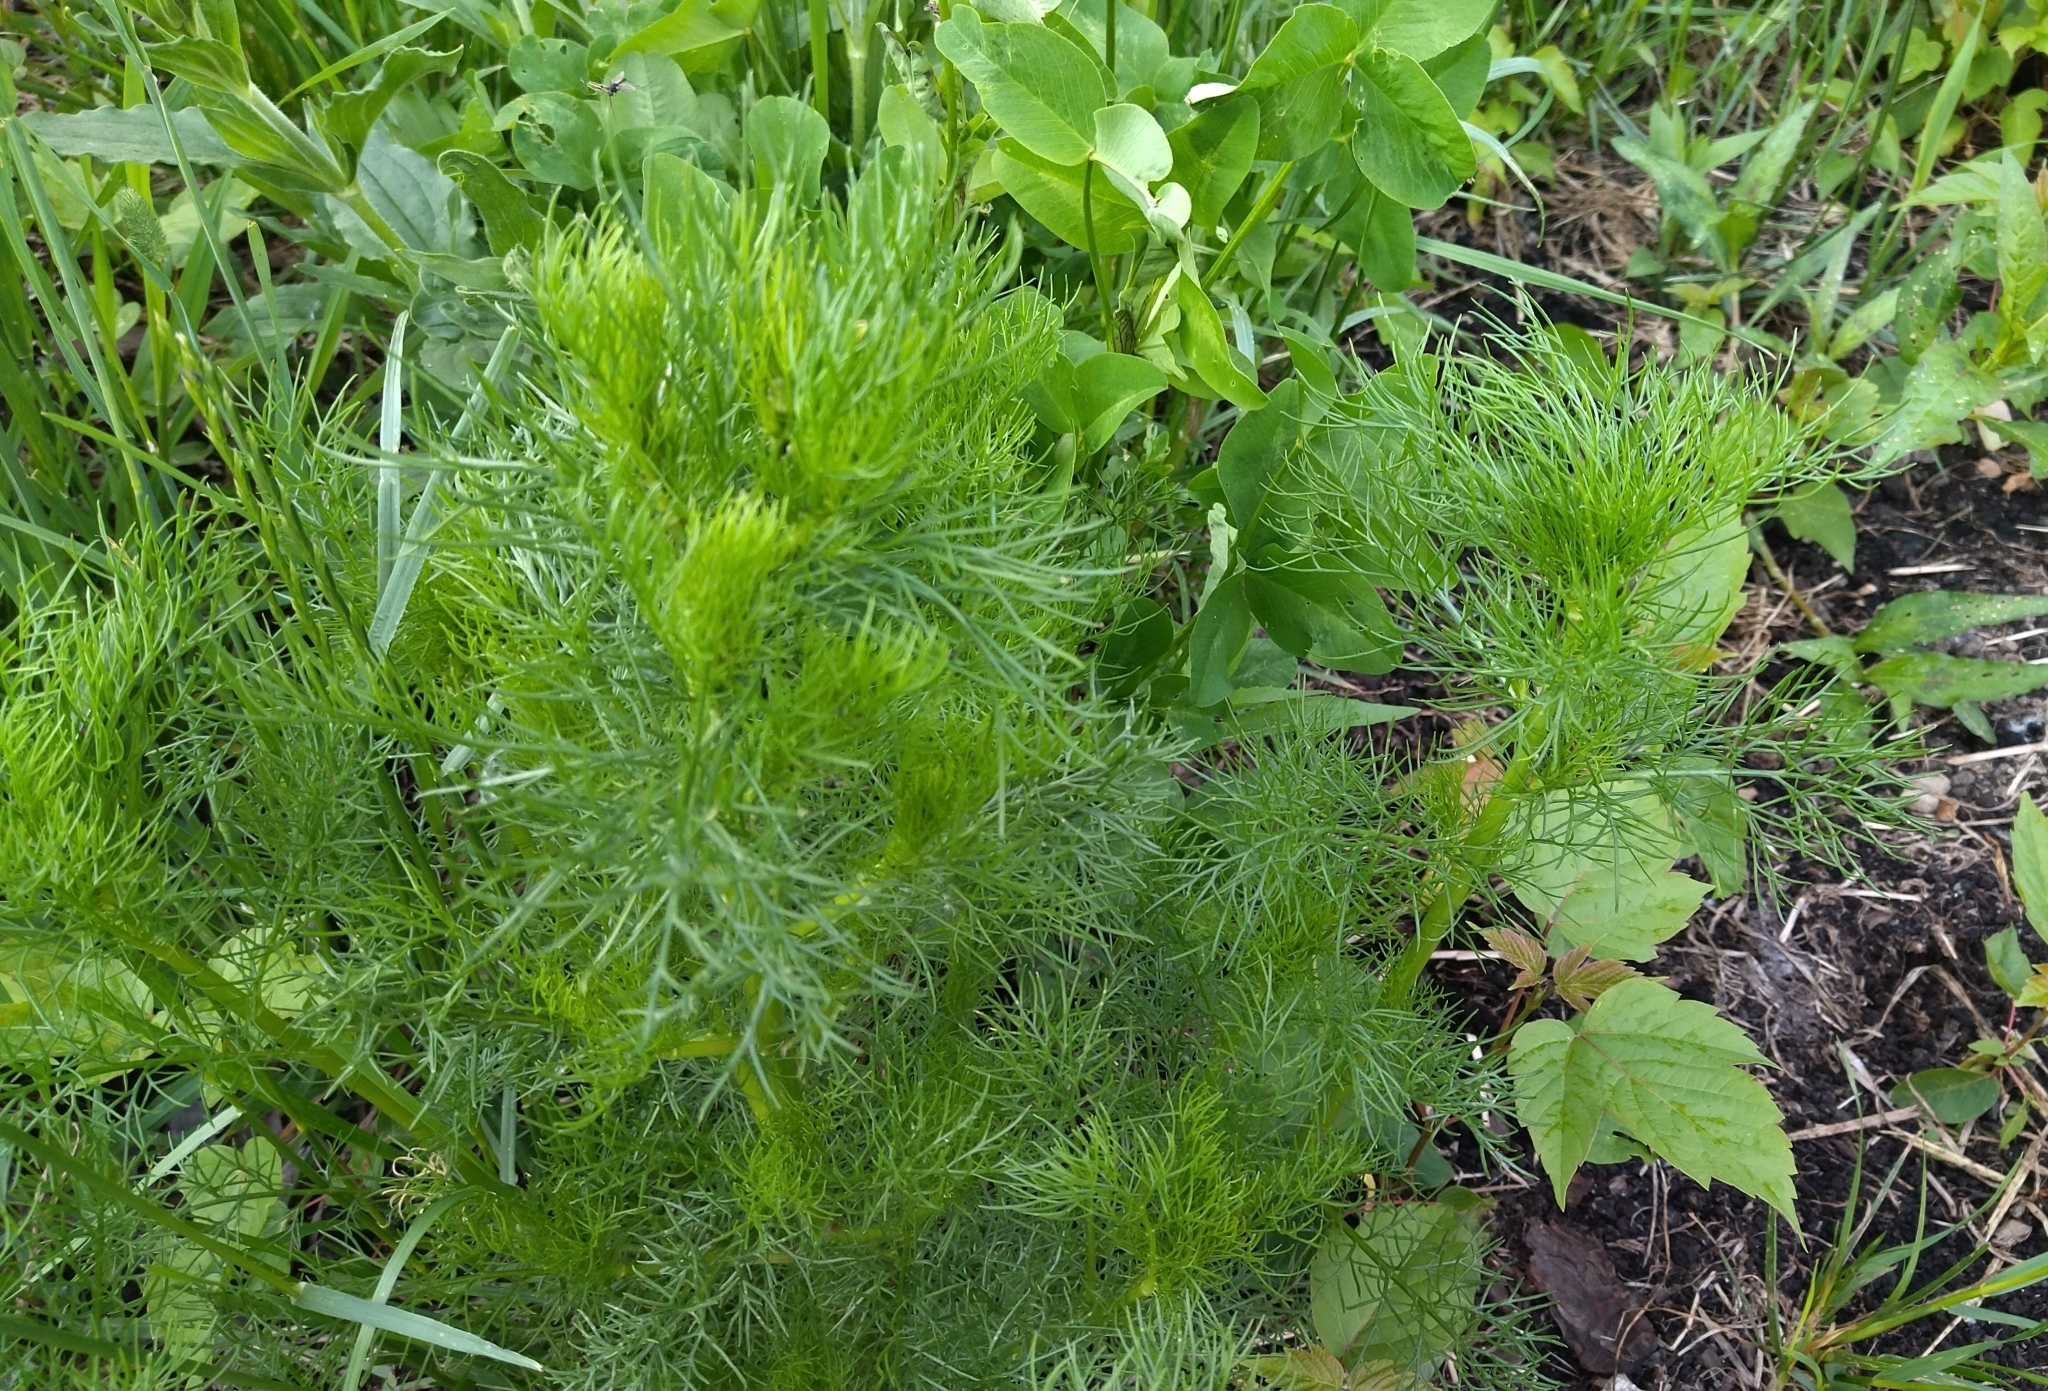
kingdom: Plantae
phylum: Tracheophyta
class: Magnoliopsida
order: Asterales
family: Asteraceae
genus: Tripleurospermum
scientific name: Tripleurospermum inodorum
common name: Scentless mayweed
